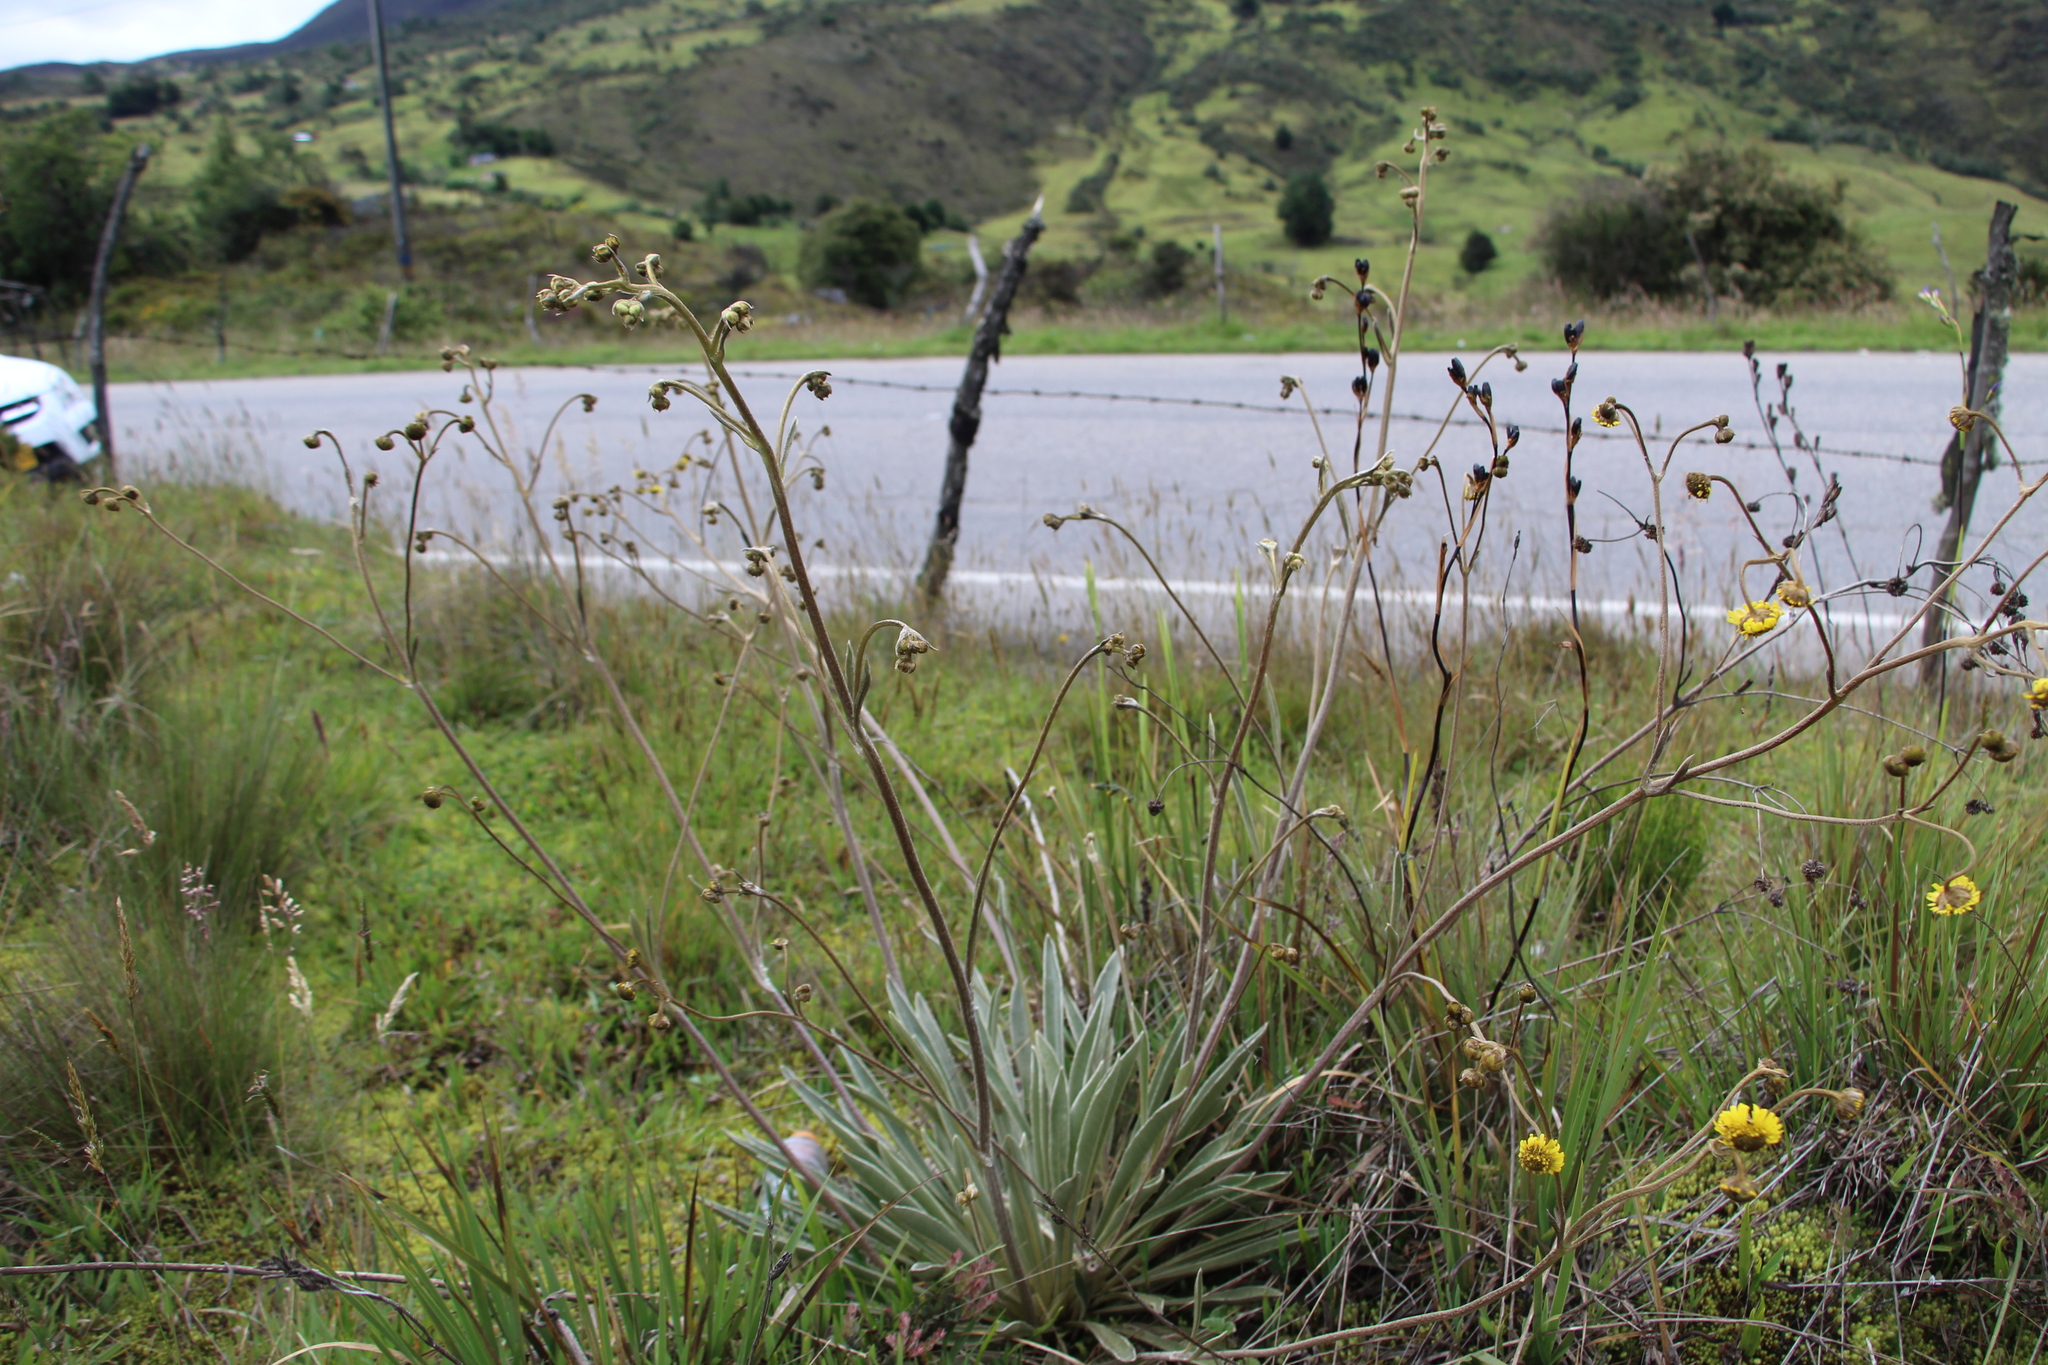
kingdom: Plantae
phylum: Tracheophyta
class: Magnoliopsida
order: Asterales
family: Asteraceae
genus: Espeletia
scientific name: Espeletia boyacensis
